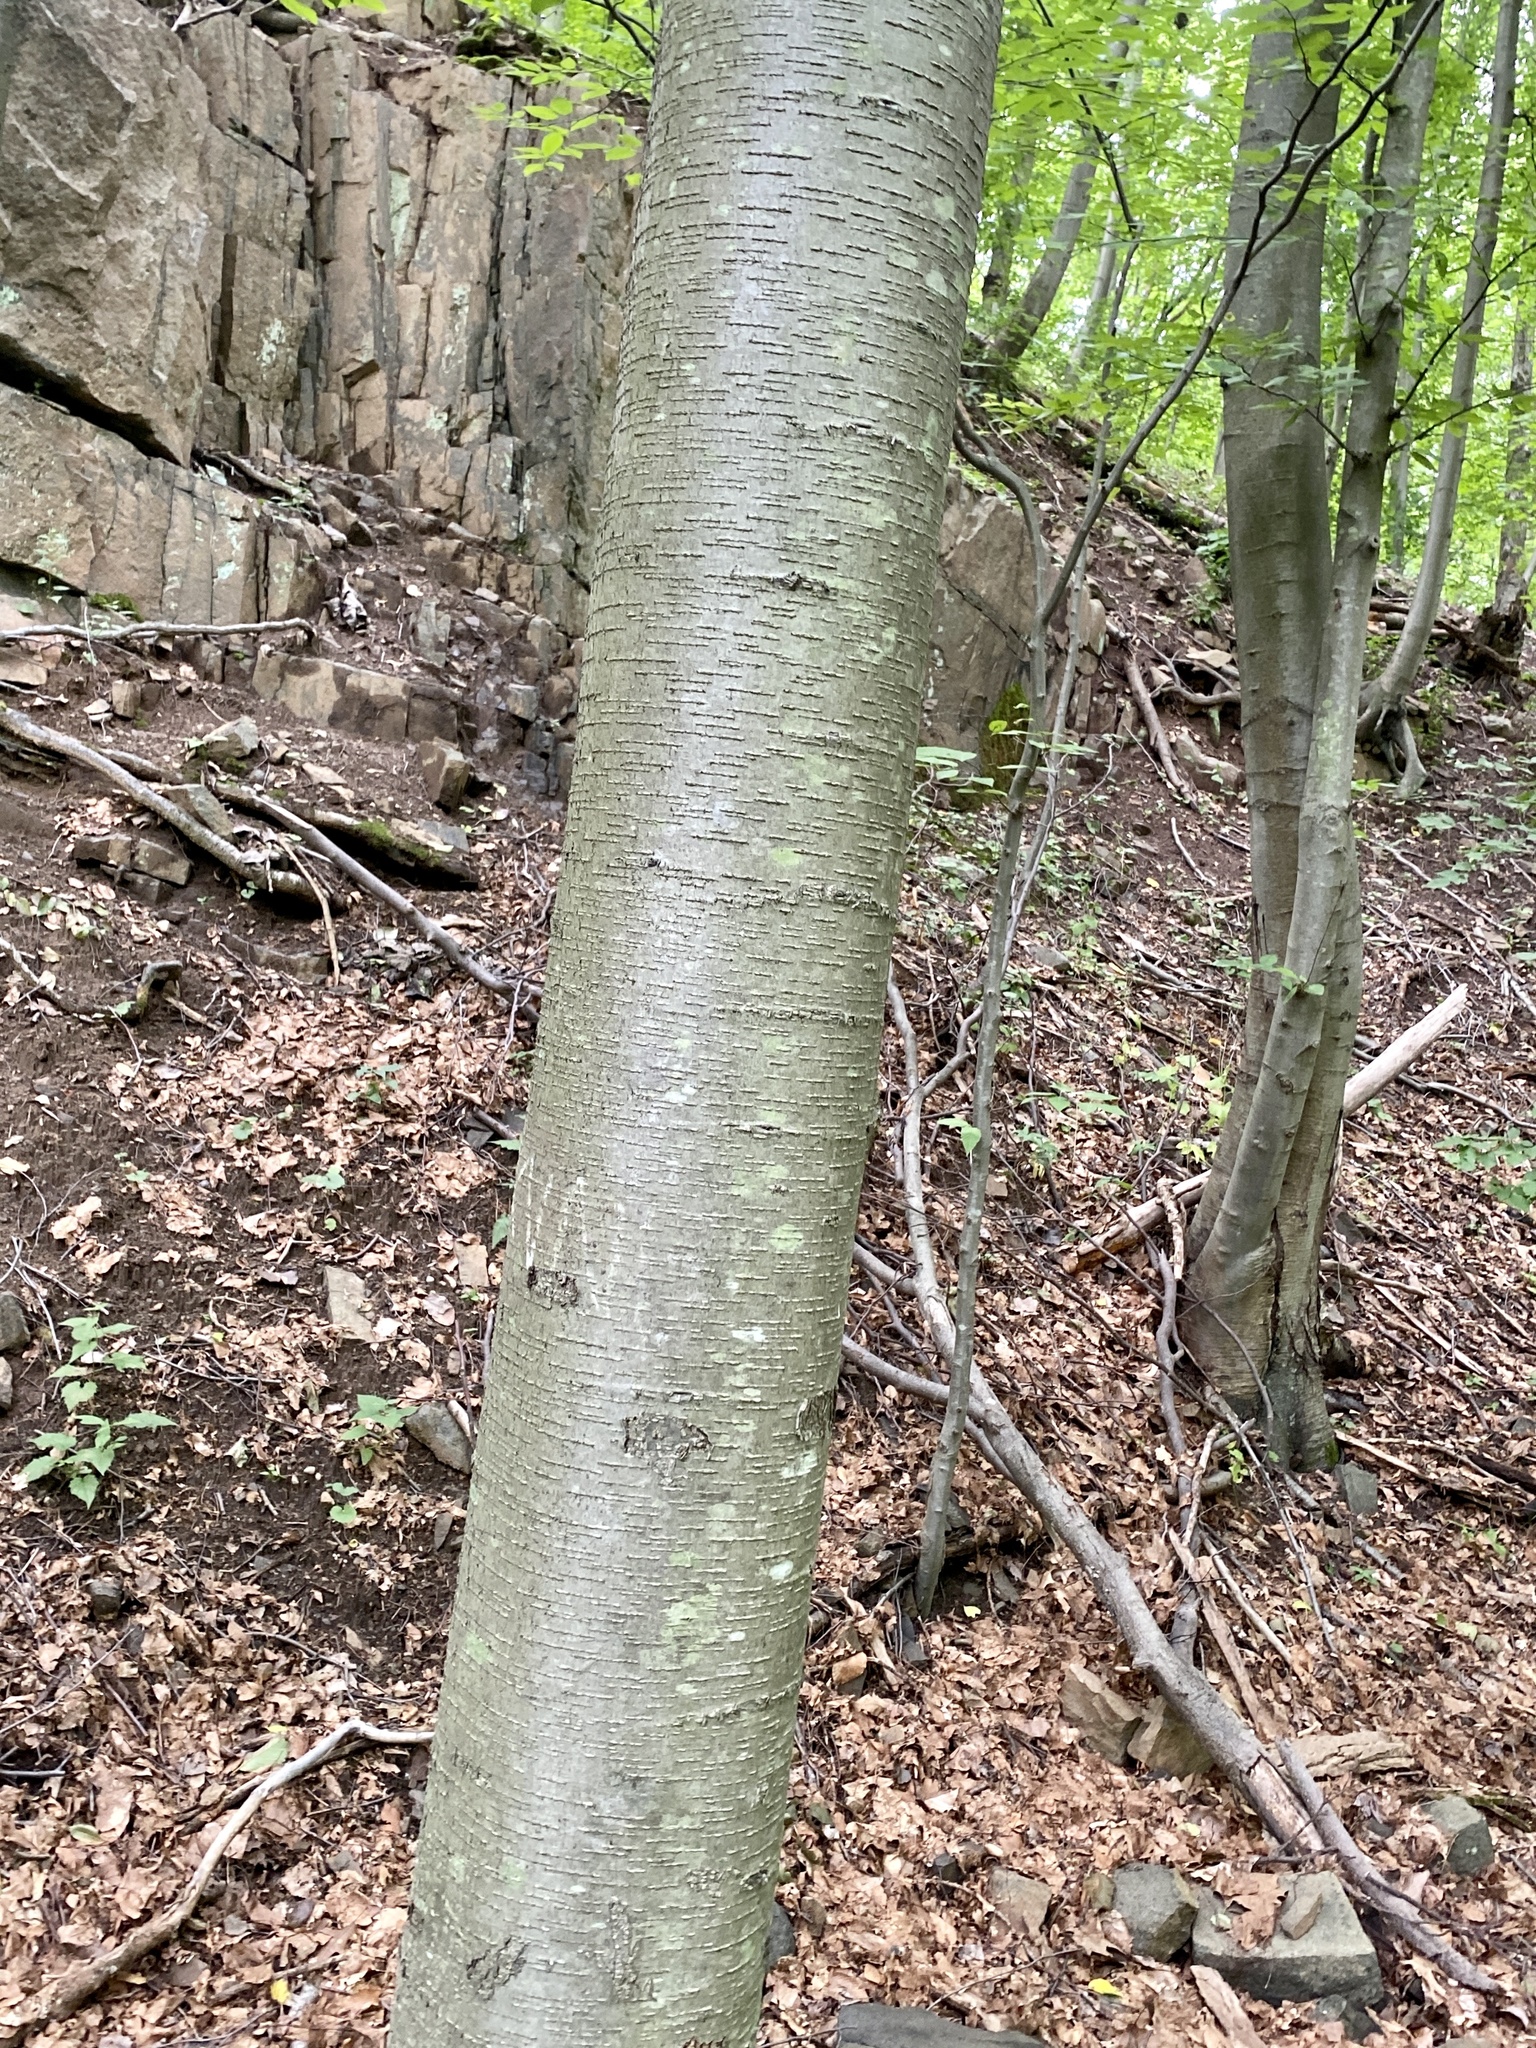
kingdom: Plantae
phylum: Tracheophyta
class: Magnoliopsida
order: Fagales
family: Betulaceae
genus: Betula
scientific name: Betula lenta
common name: Black birch
